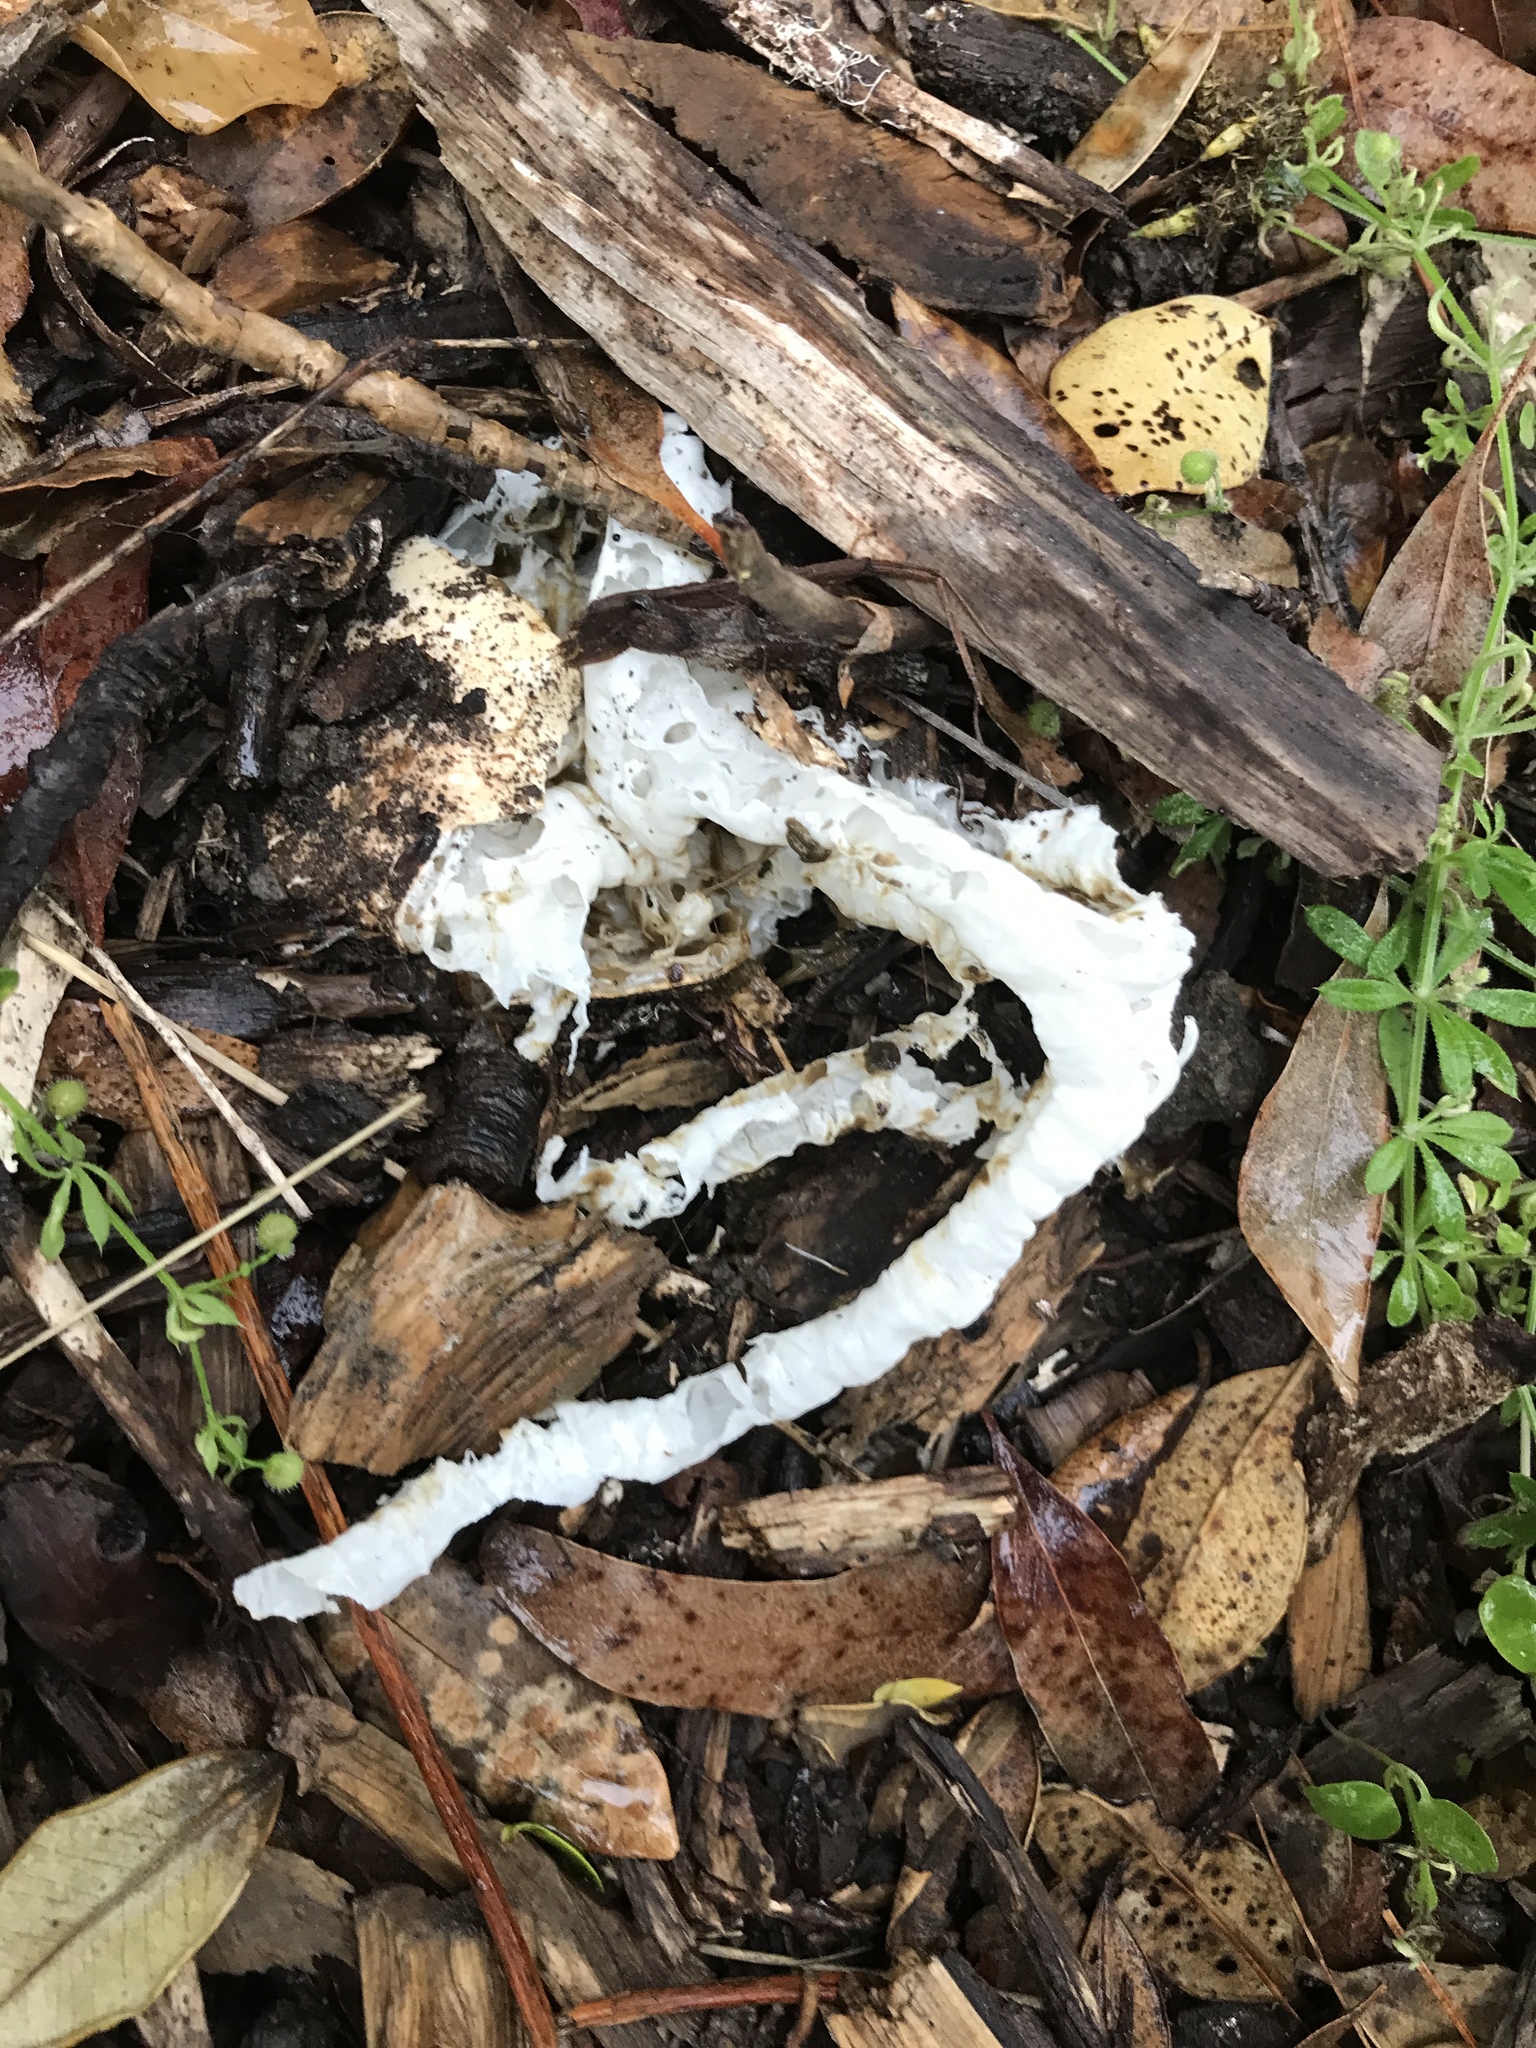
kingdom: Fungi
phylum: Basidiomycota
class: Agaricomycetes
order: Phallales
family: Phallaceae
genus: Ileodictyon
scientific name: Ileodictyon cibarium
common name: Basket fungus
